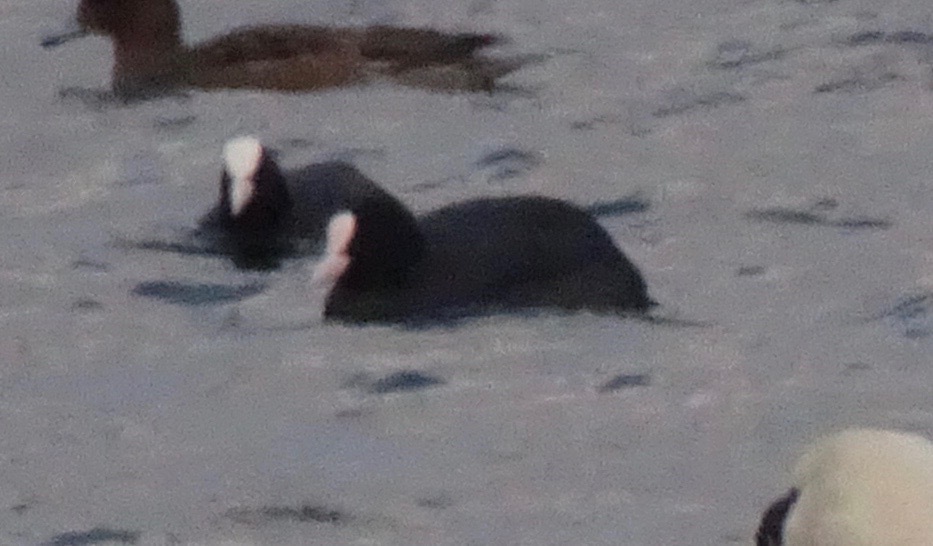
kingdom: Animalia
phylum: Chordata
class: Aves
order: Gruiformes
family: Rallidae
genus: Fulica
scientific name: Fulica atra
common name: Eurasian coot
